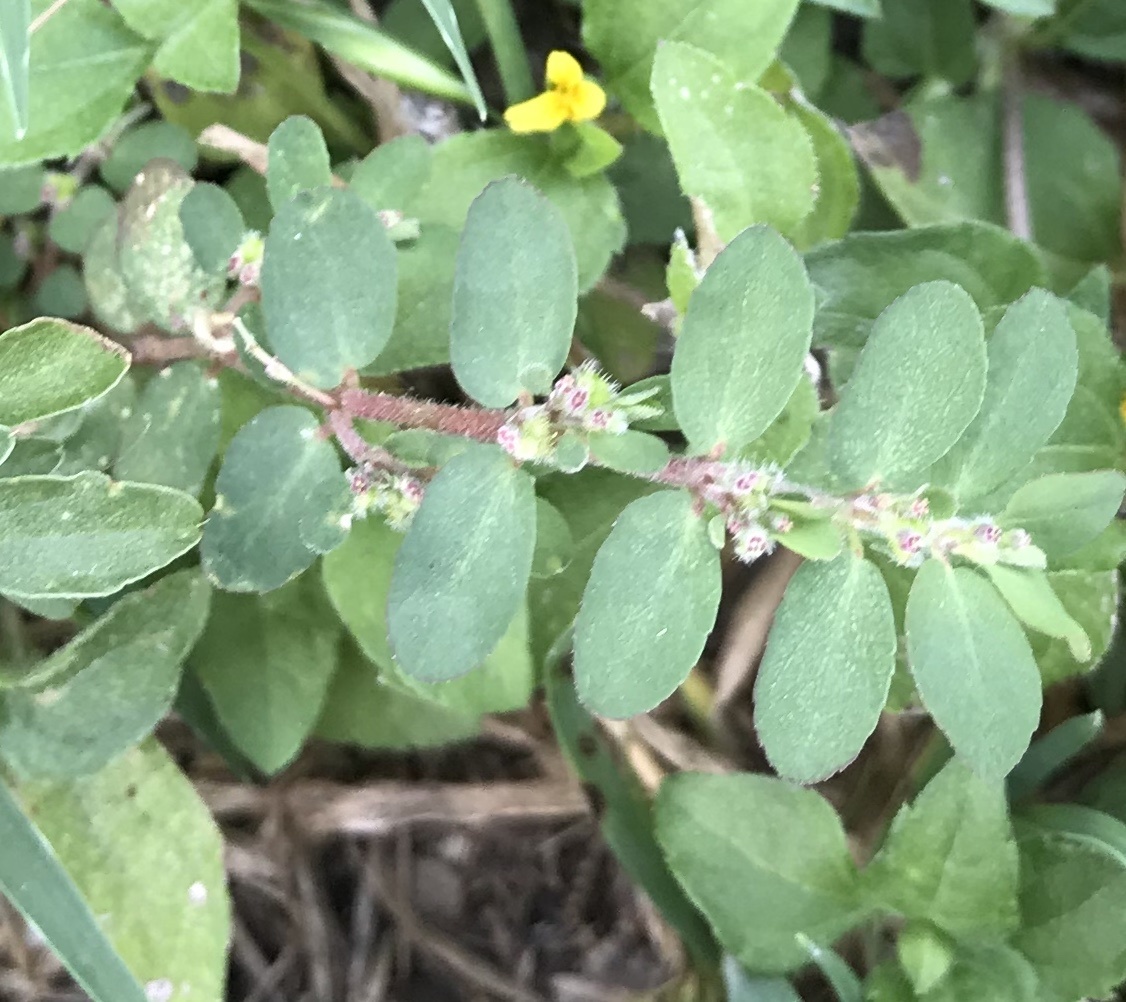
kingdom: Plantae
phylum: Tracheophyta
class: Magnoliopsida
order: Malpighiales
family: Euphorbiaceae
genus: Euphorbia
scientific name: Euphorbia prostrata
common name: Prostrate sandmat
